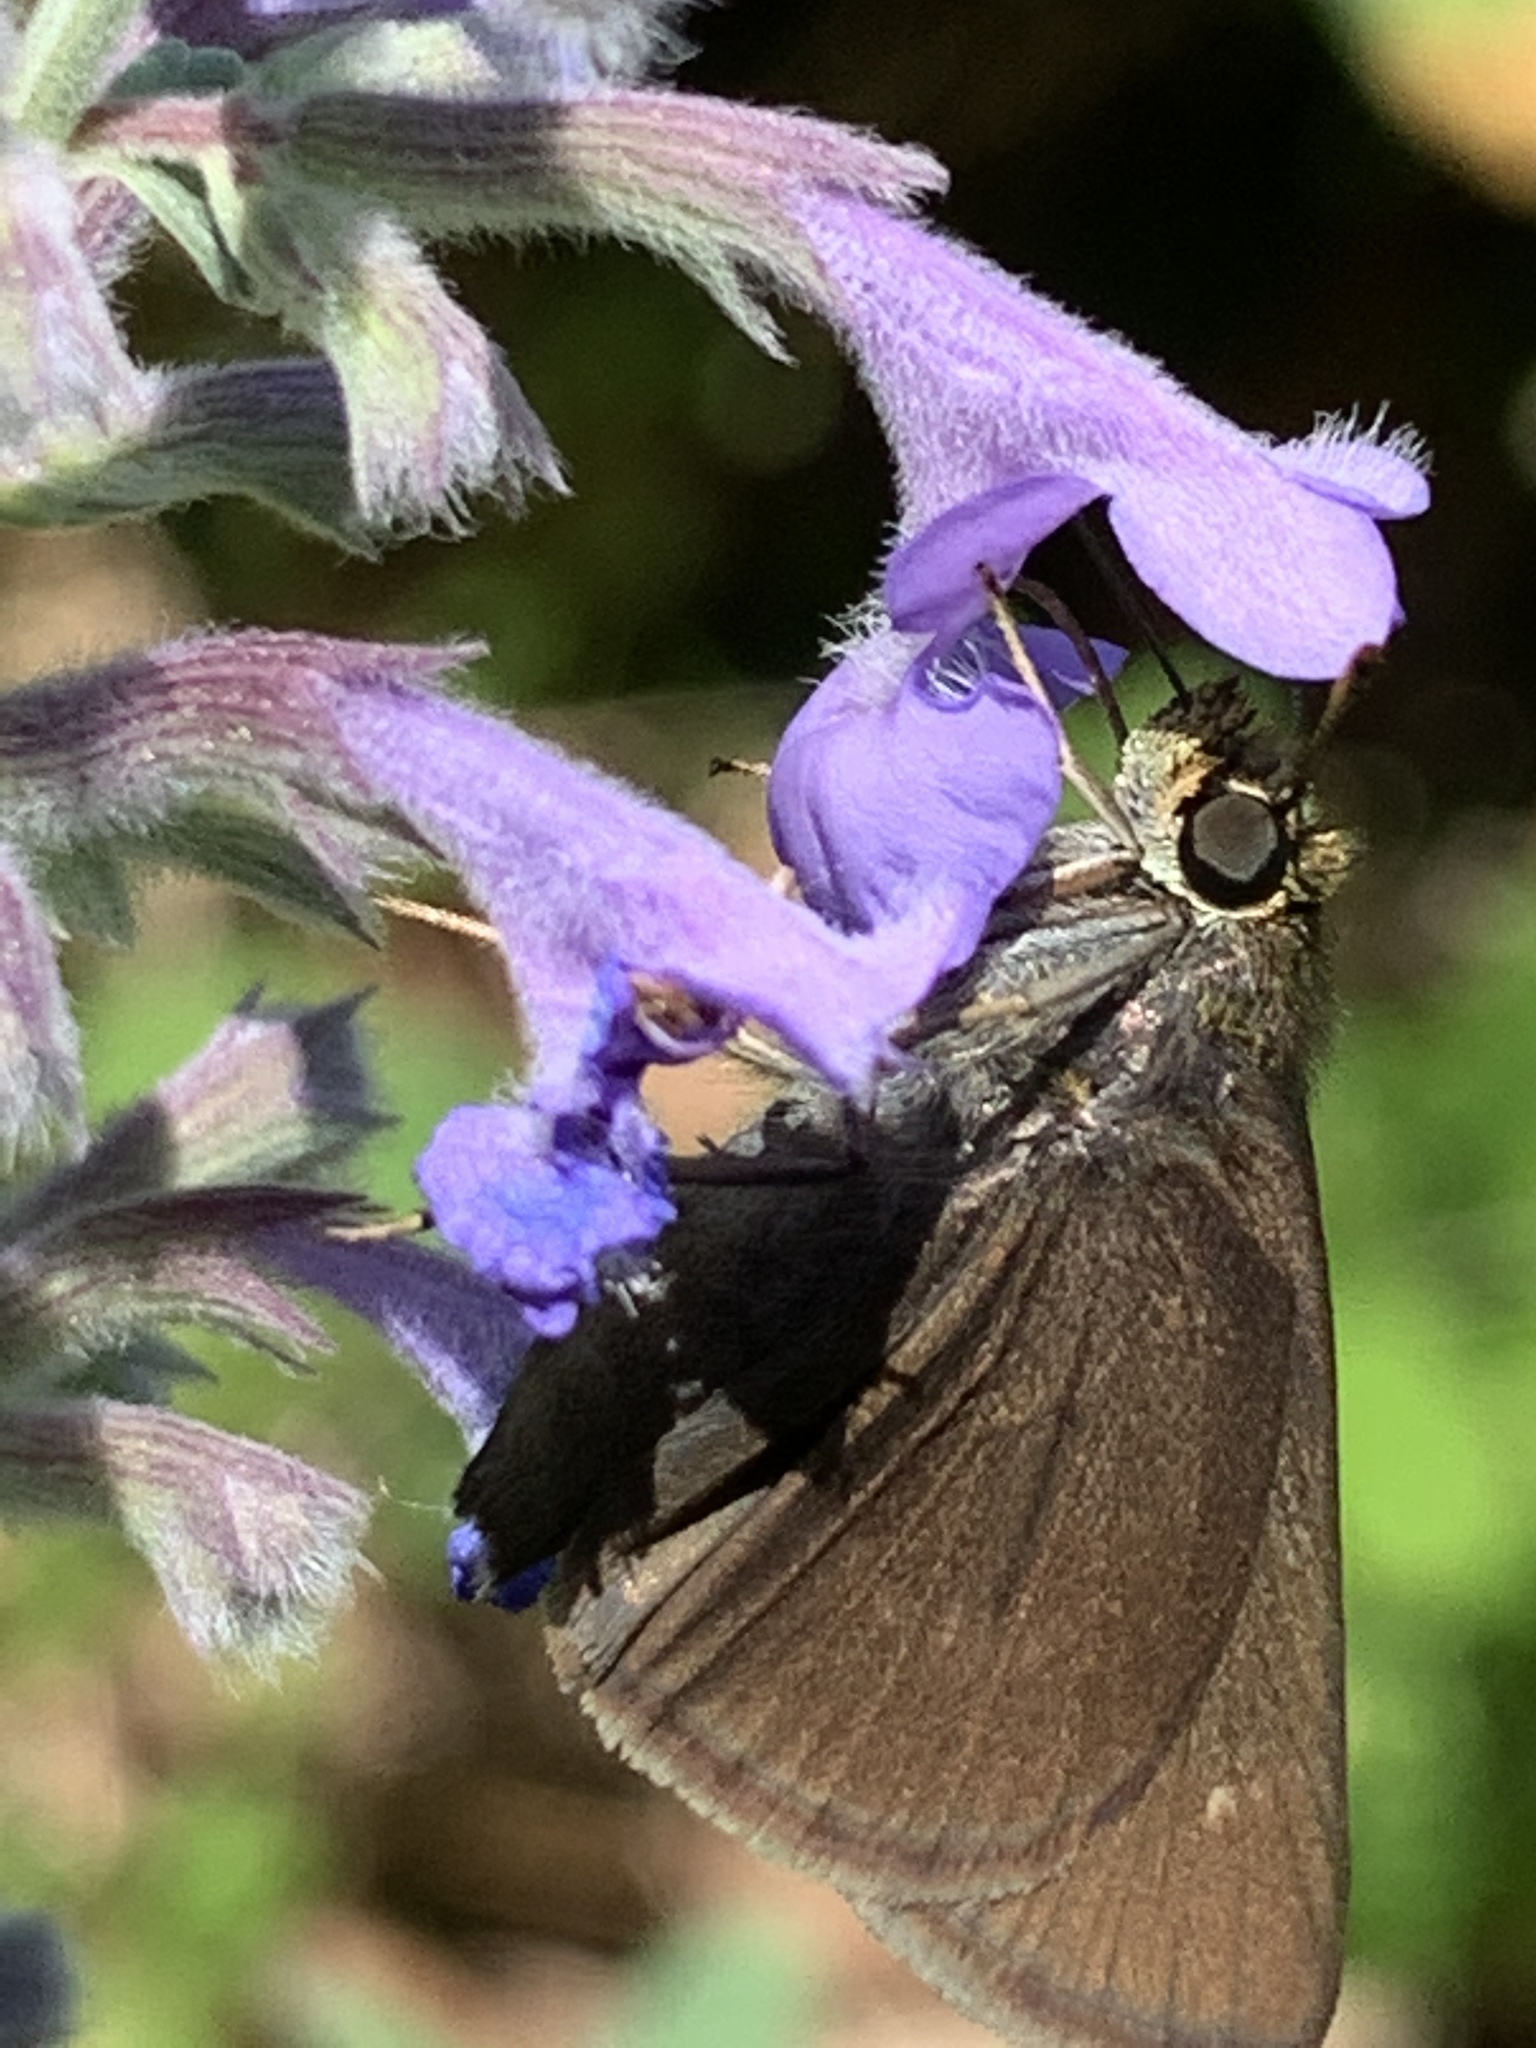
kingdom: Animalia
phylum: Arthropoda
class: Insecta
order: Lepidoptera
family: Hesperiidae
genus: Euphyes
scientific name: Euphyes vestris
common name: Dun skipper
